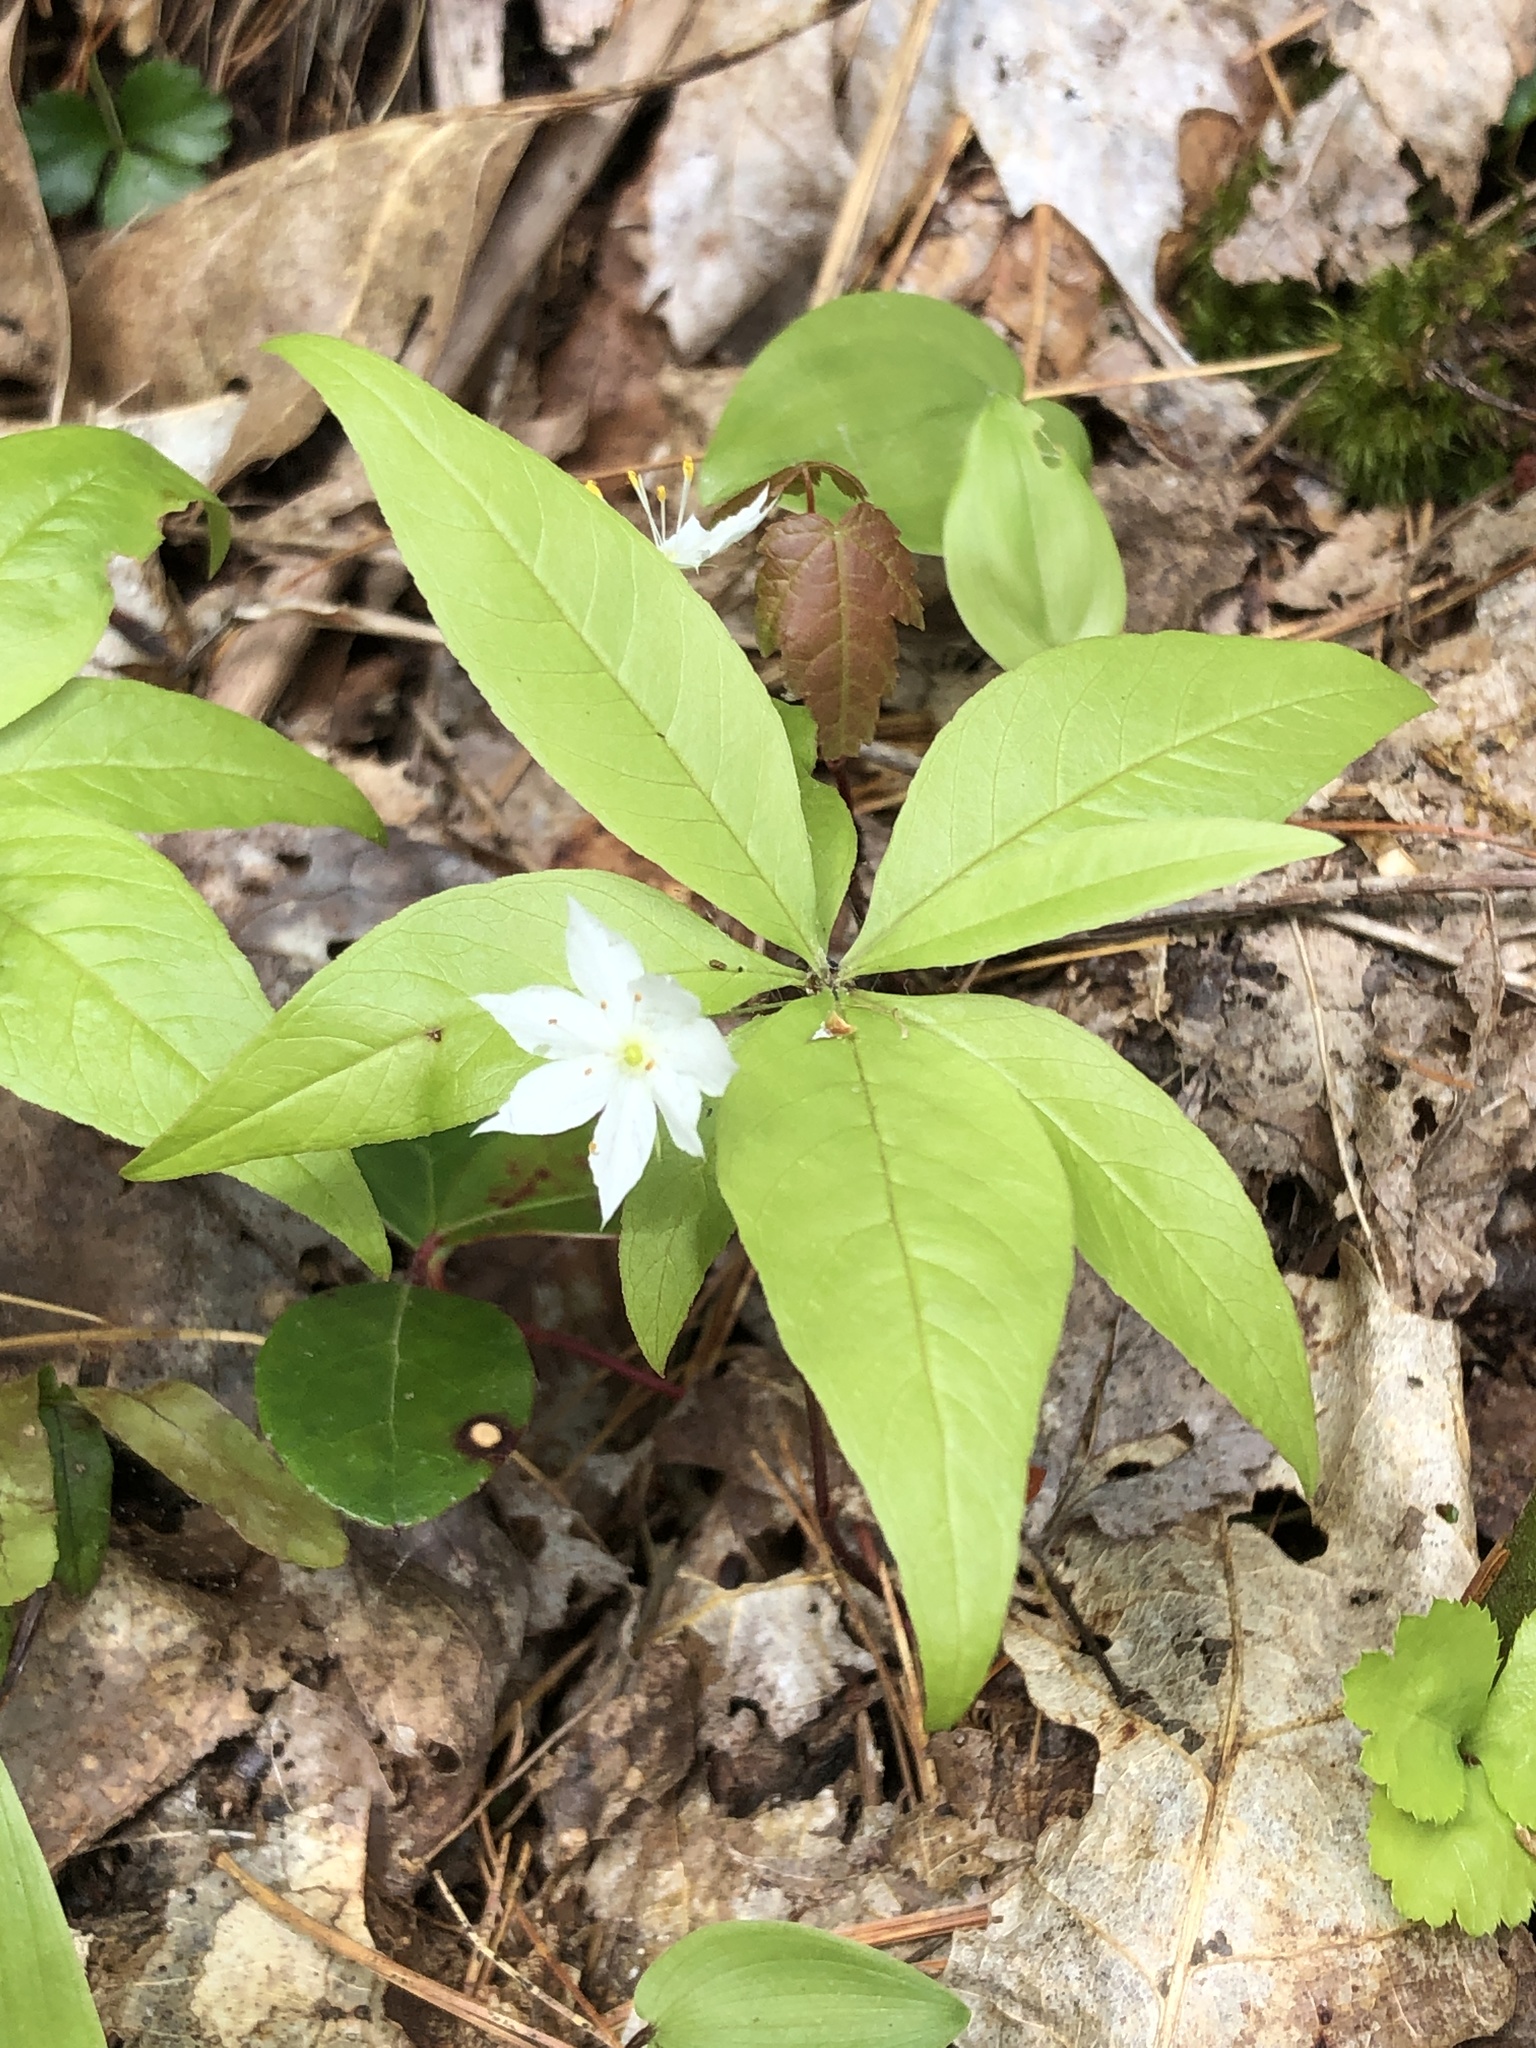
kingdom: Plantae
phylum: Tracheophyta
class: Magnoliopsida
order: Ericales
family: Primulaceae
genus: Lysimachia
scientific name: Lysimachia borealis
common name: American starflower
